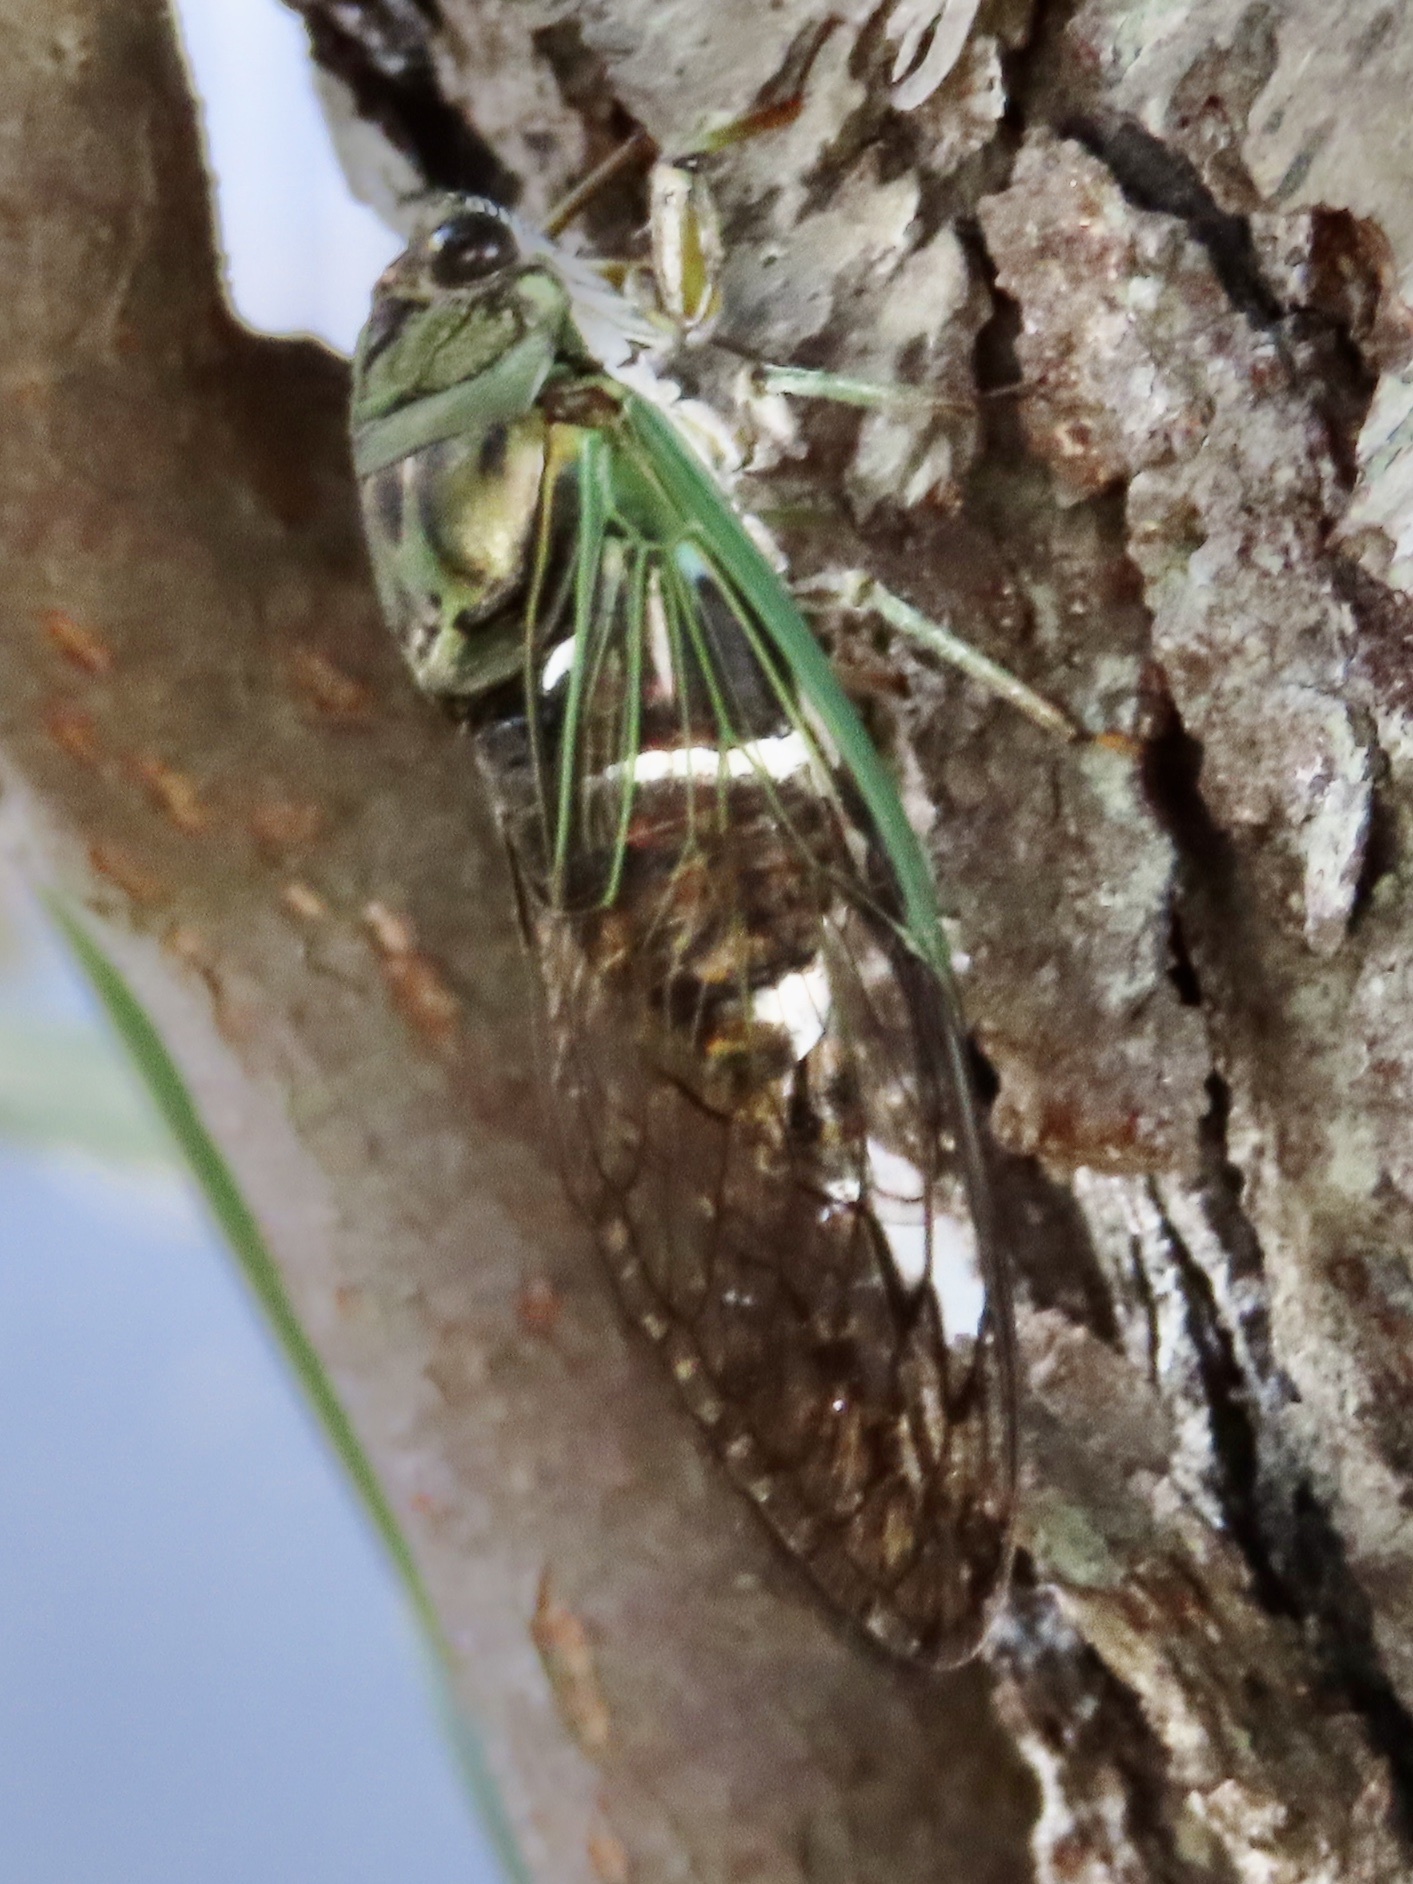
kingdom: Animalia
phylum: Arthropoda
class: Insecta
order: Hemiptera
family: Cicadidae
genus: Neotibicen
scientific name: Neotibicen latifasciatus
